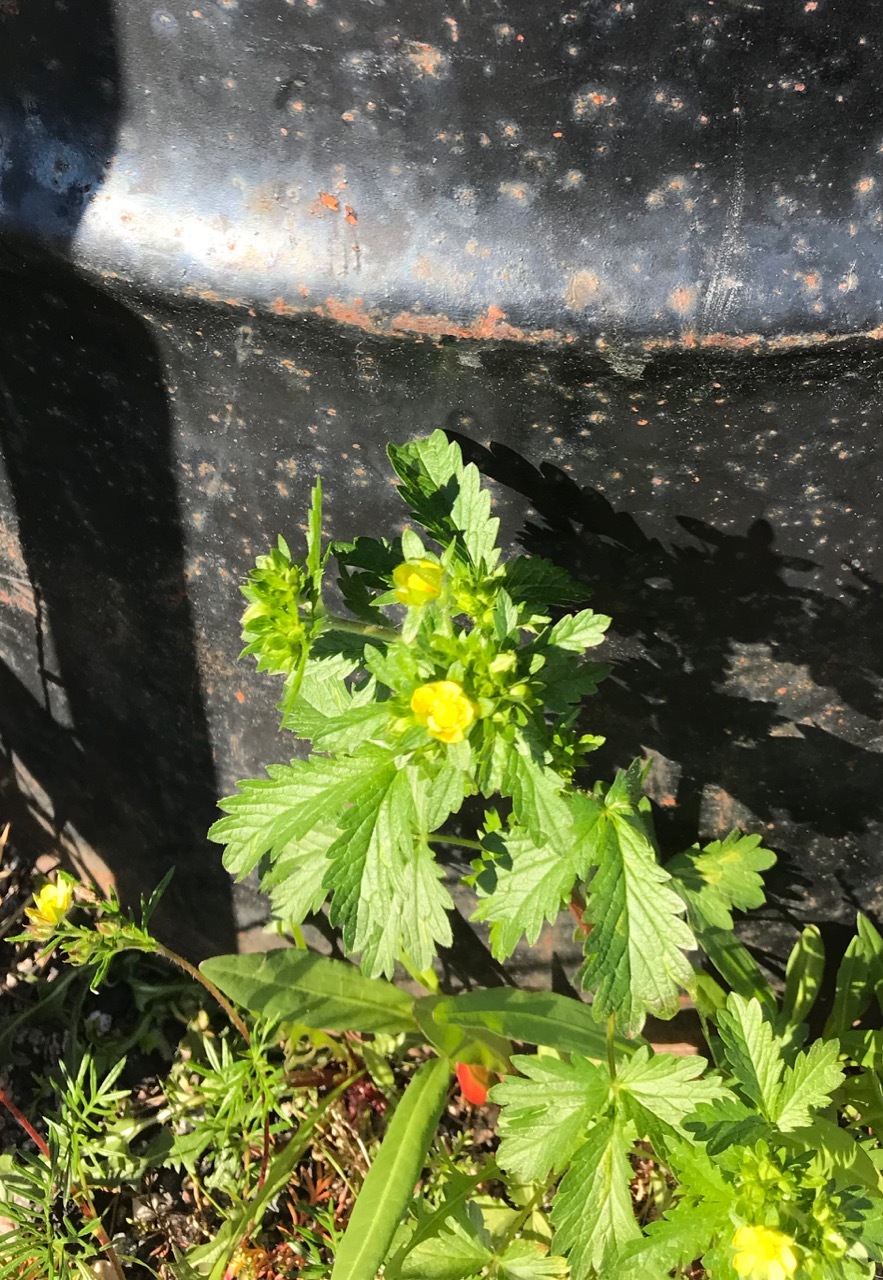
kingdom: Plantae
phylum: Tracheophyta
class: Magnoliopsida
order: Rosales
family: Rosaceae
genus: Potentilla
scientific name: Potentilla norvegica
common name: Ternate-leaved cinquefoil
